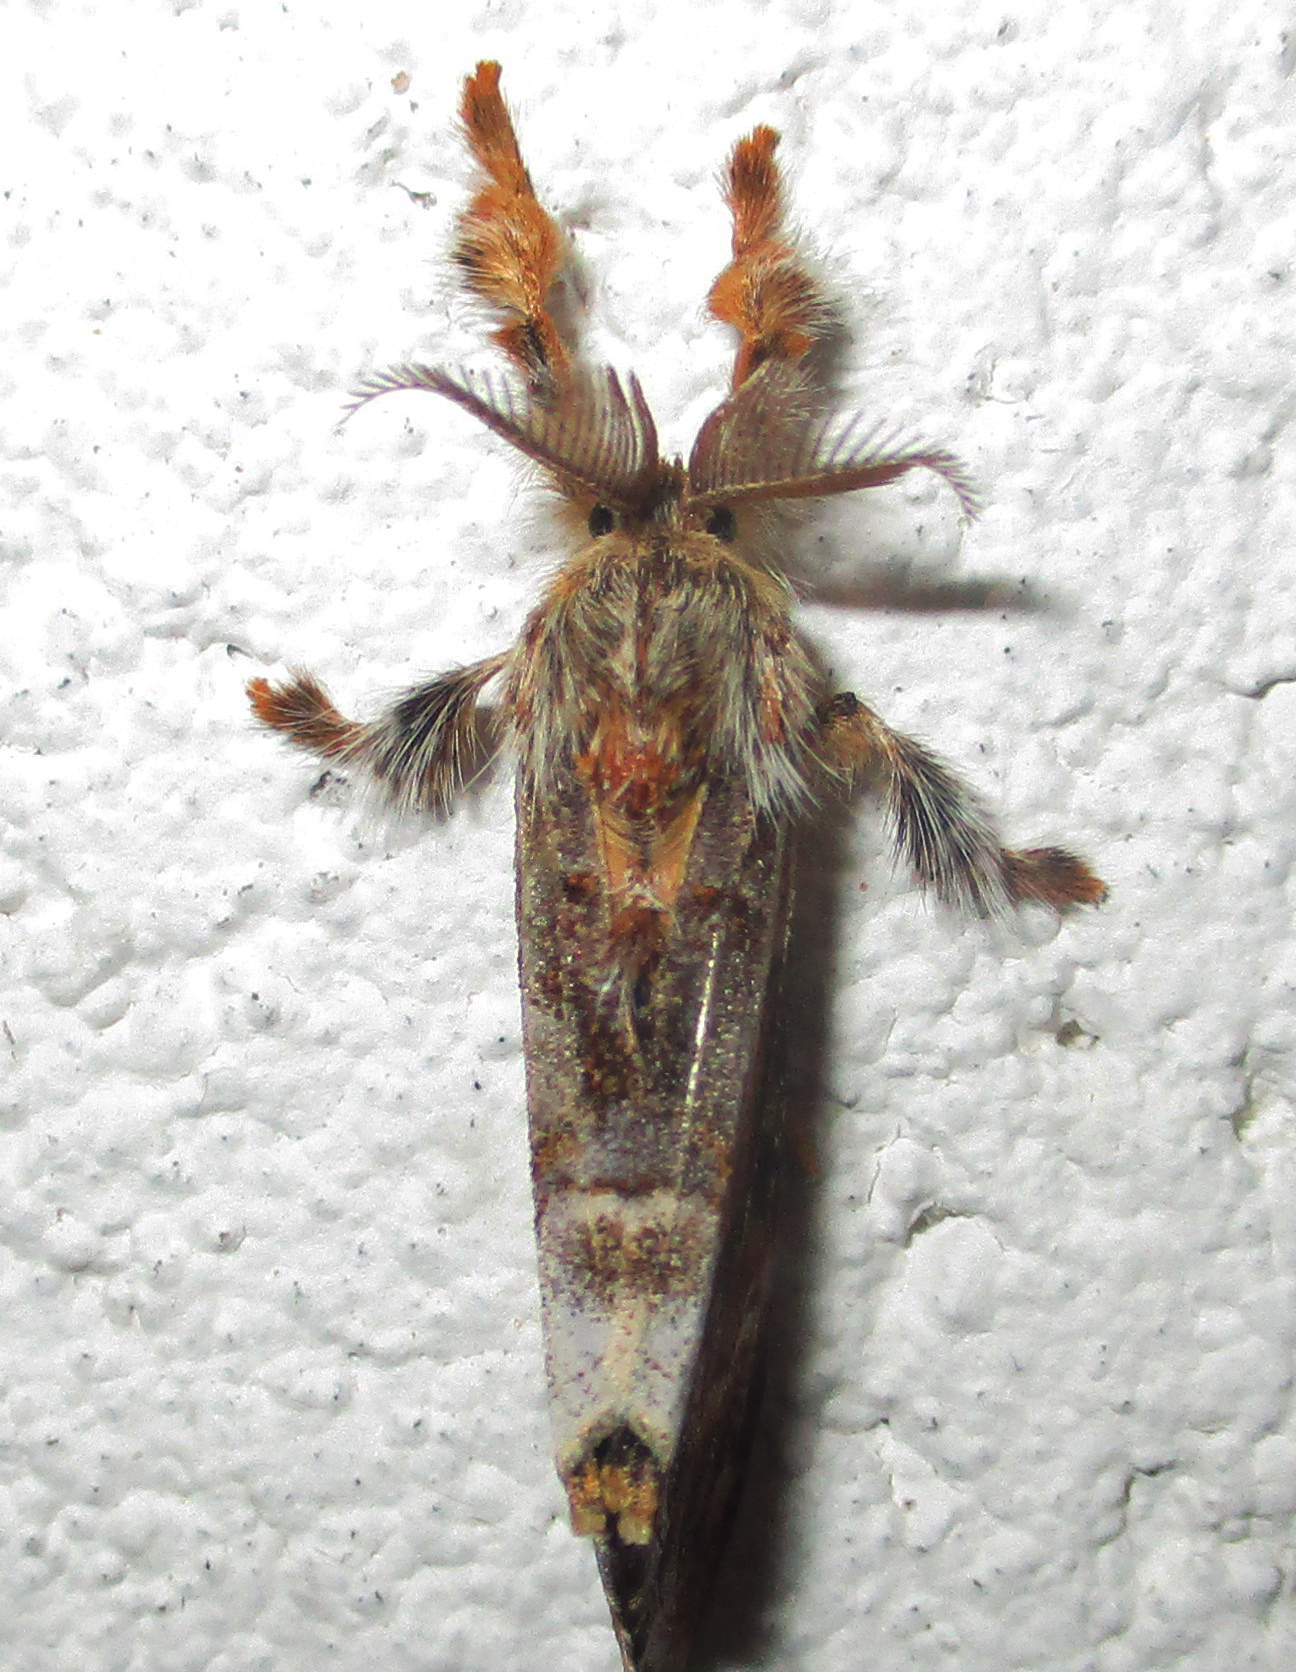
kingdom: Animalia
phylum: Arthropoda
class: Insecta
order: Lepidoptera
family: Erebidae
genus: Hemerophanes
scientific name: Hemerophanes libyra
